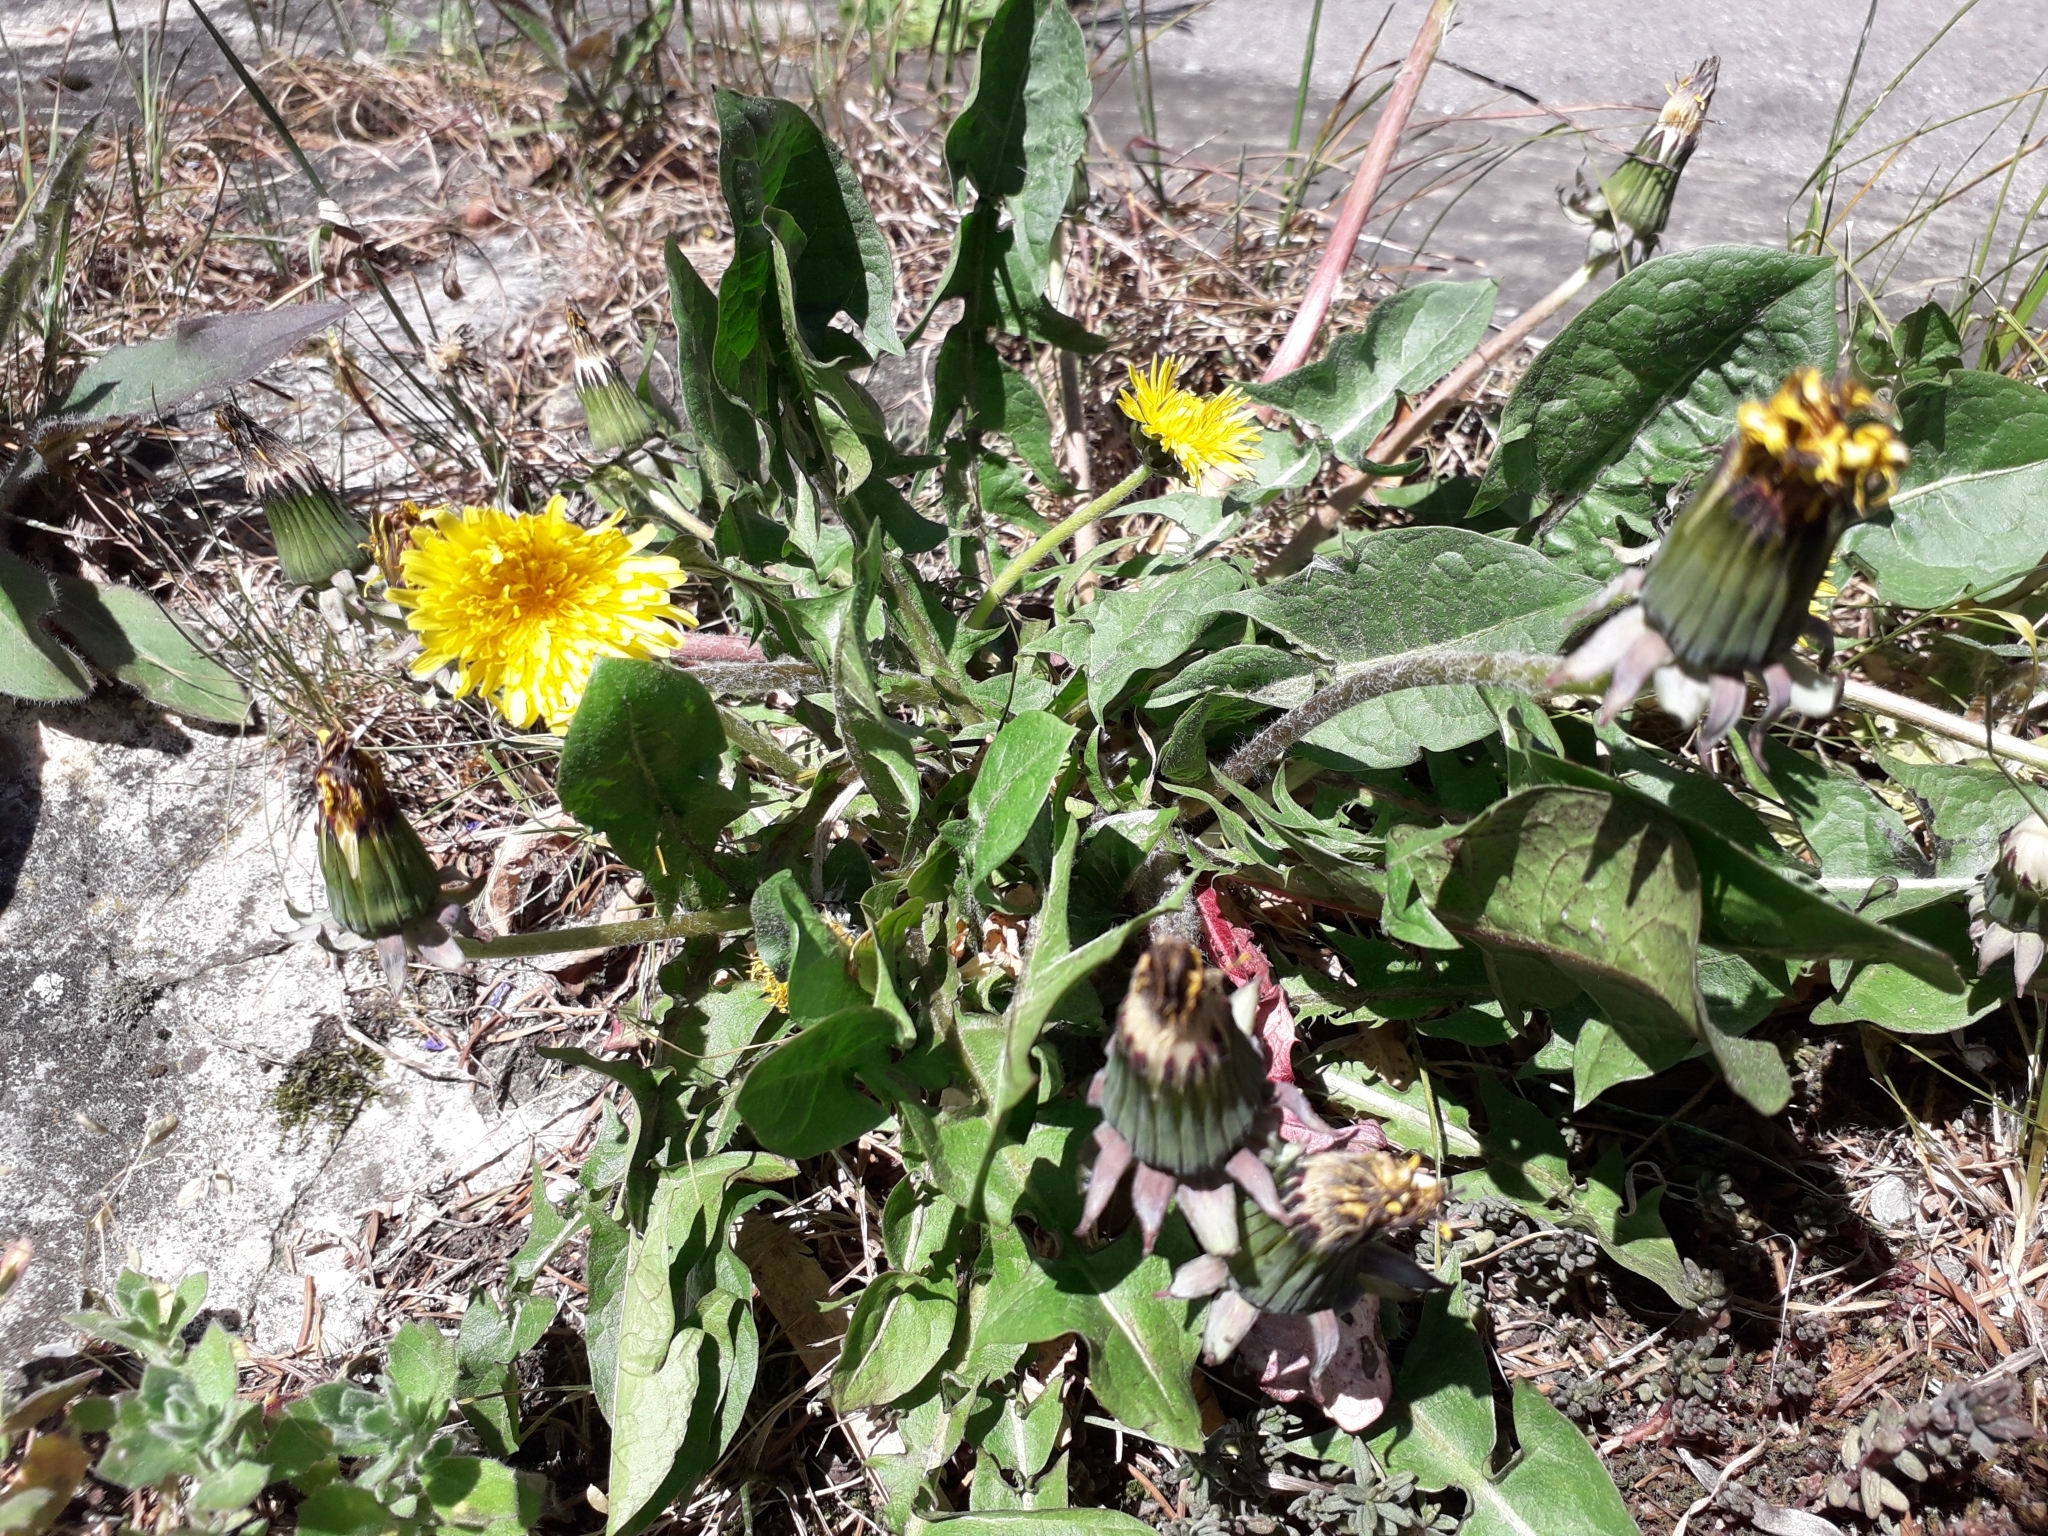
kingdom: Plantae
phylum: Tracheophyta
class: Magnoliopsida
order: Asterales
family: Asteraceae
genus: Taraxacum
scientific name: Taraxacum officinale
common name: Common dandelion
